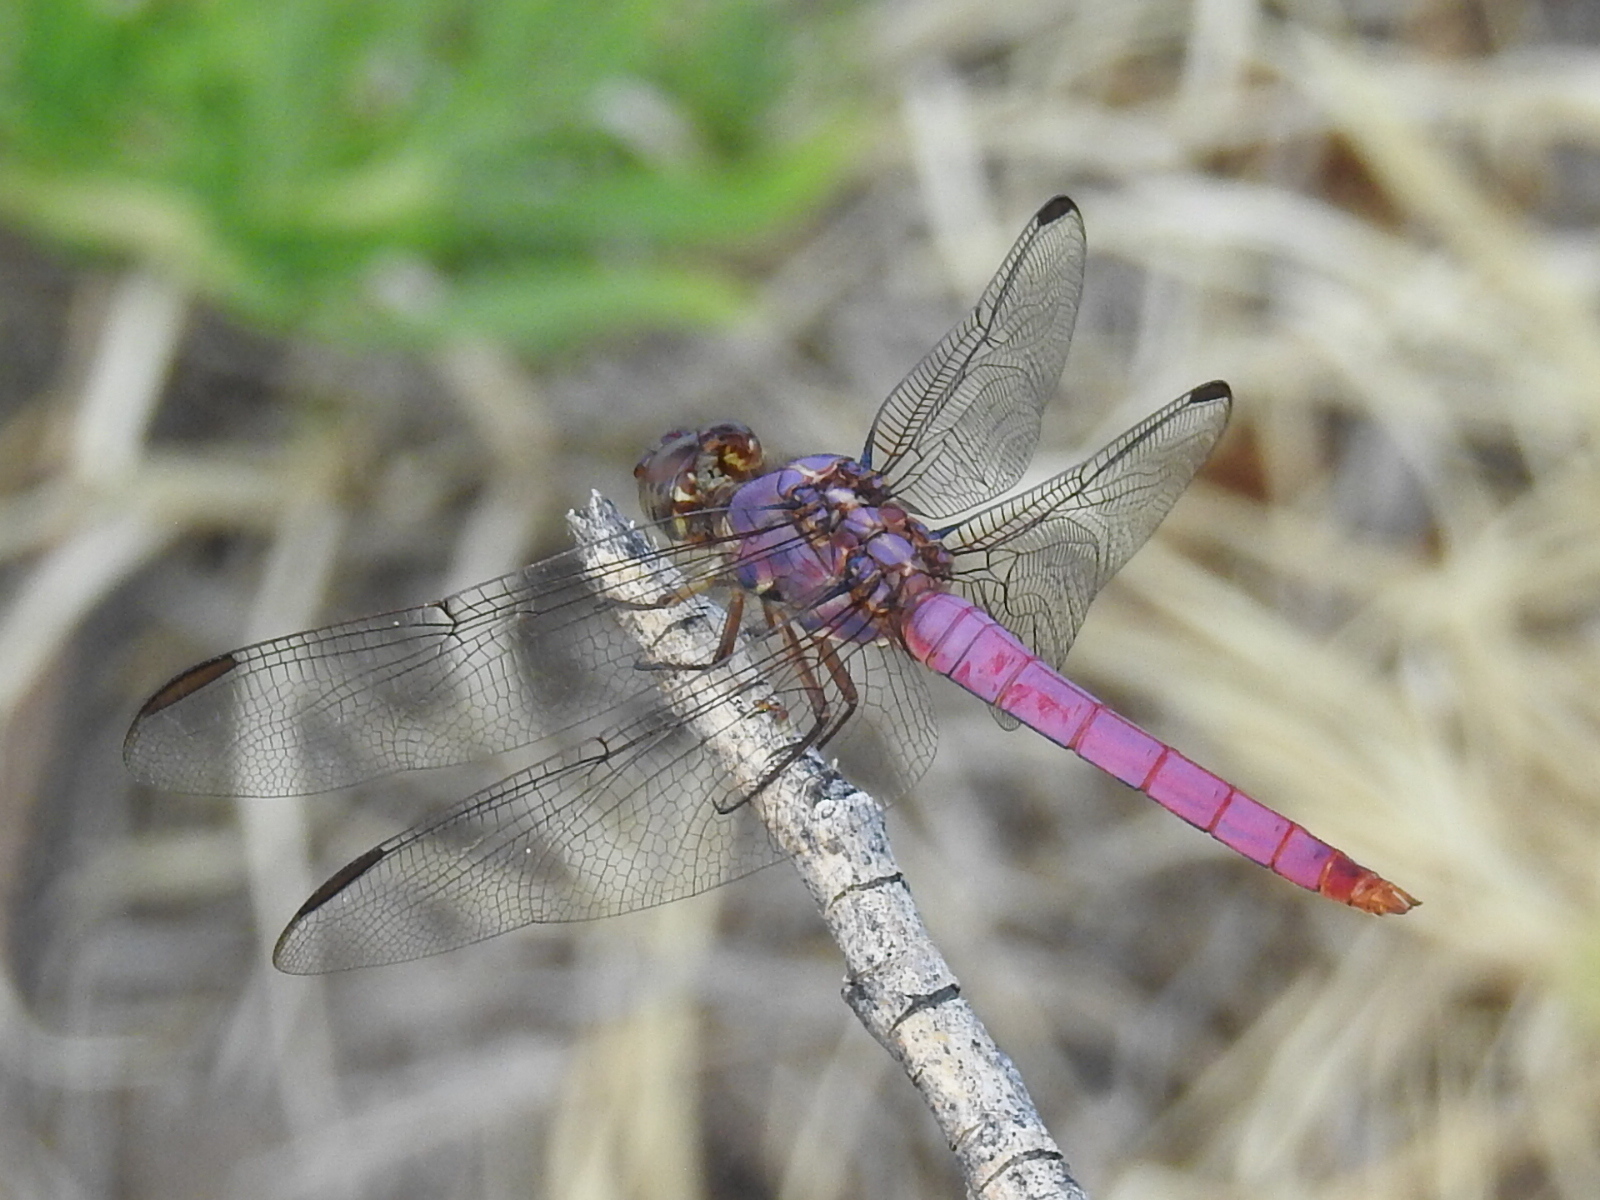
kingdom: Animalia
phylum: Arthropoda
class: Insecta
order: Odonata
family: Libellulidae
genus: Orthemis
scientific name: Orthemis ferruginea
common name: Roseate skimmer
